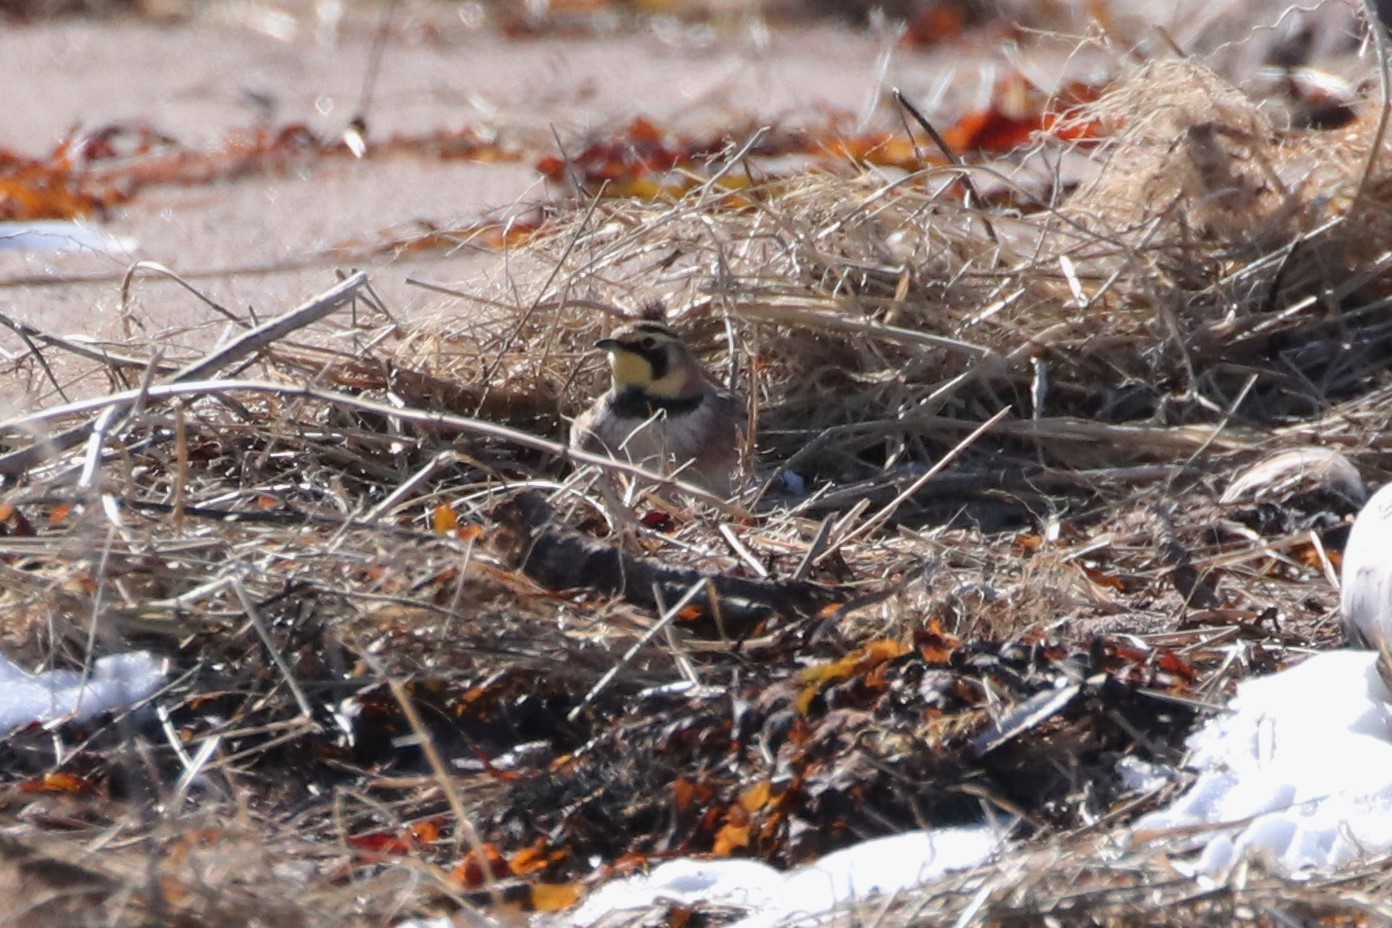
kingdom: Animalia
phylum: Chordata
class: Aves
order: Passeriformes
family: Alaudidae
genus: Eremophila
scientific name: Eremophila alpestris
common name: Horned lark
